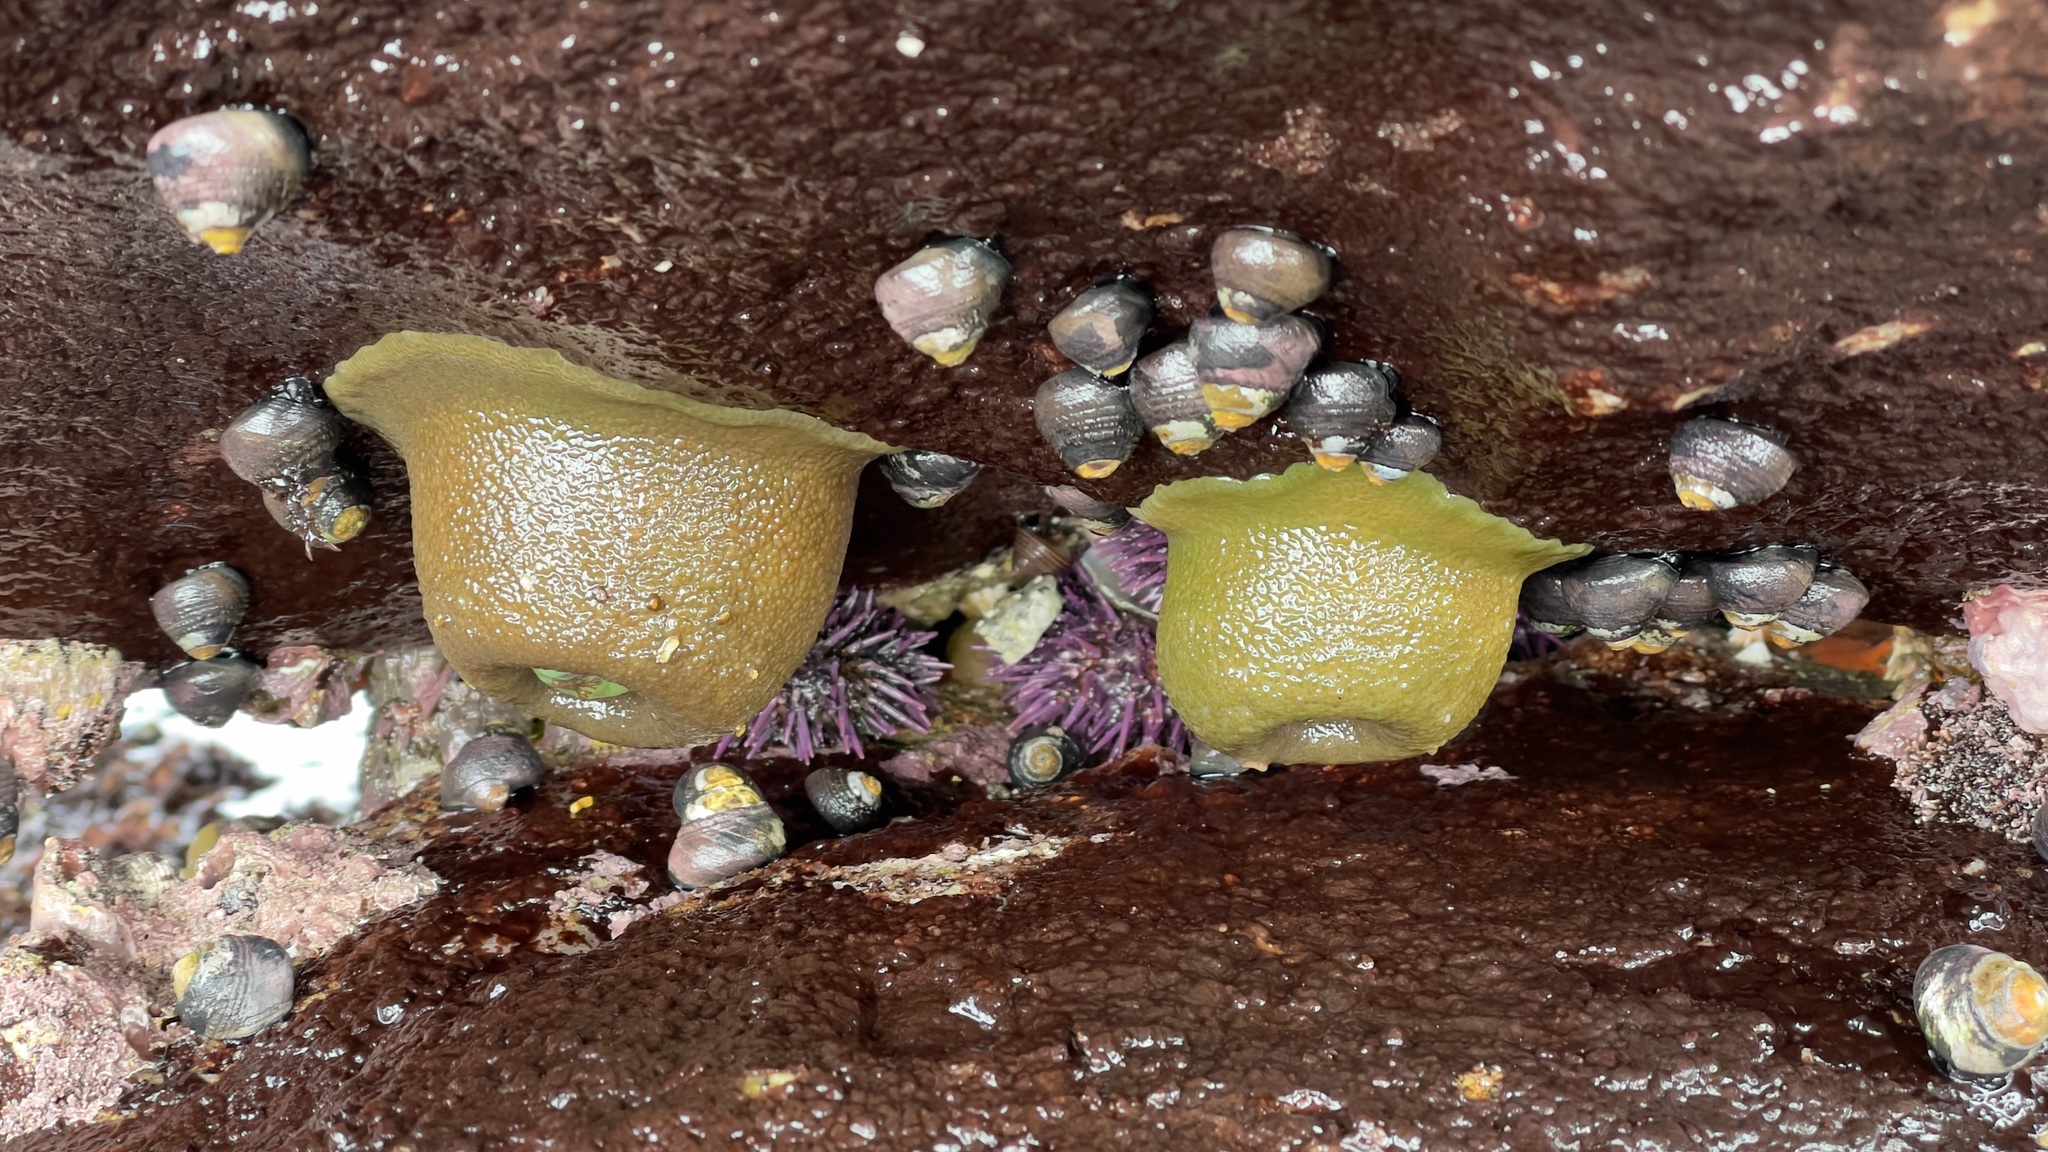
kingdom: Animalia
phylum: Cnidaria
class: Anthozoa
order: Actiniaria
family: Actiniidae
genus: Anthopleura
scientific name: Anthopleura xanthogrammica
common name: Giant green anemone
